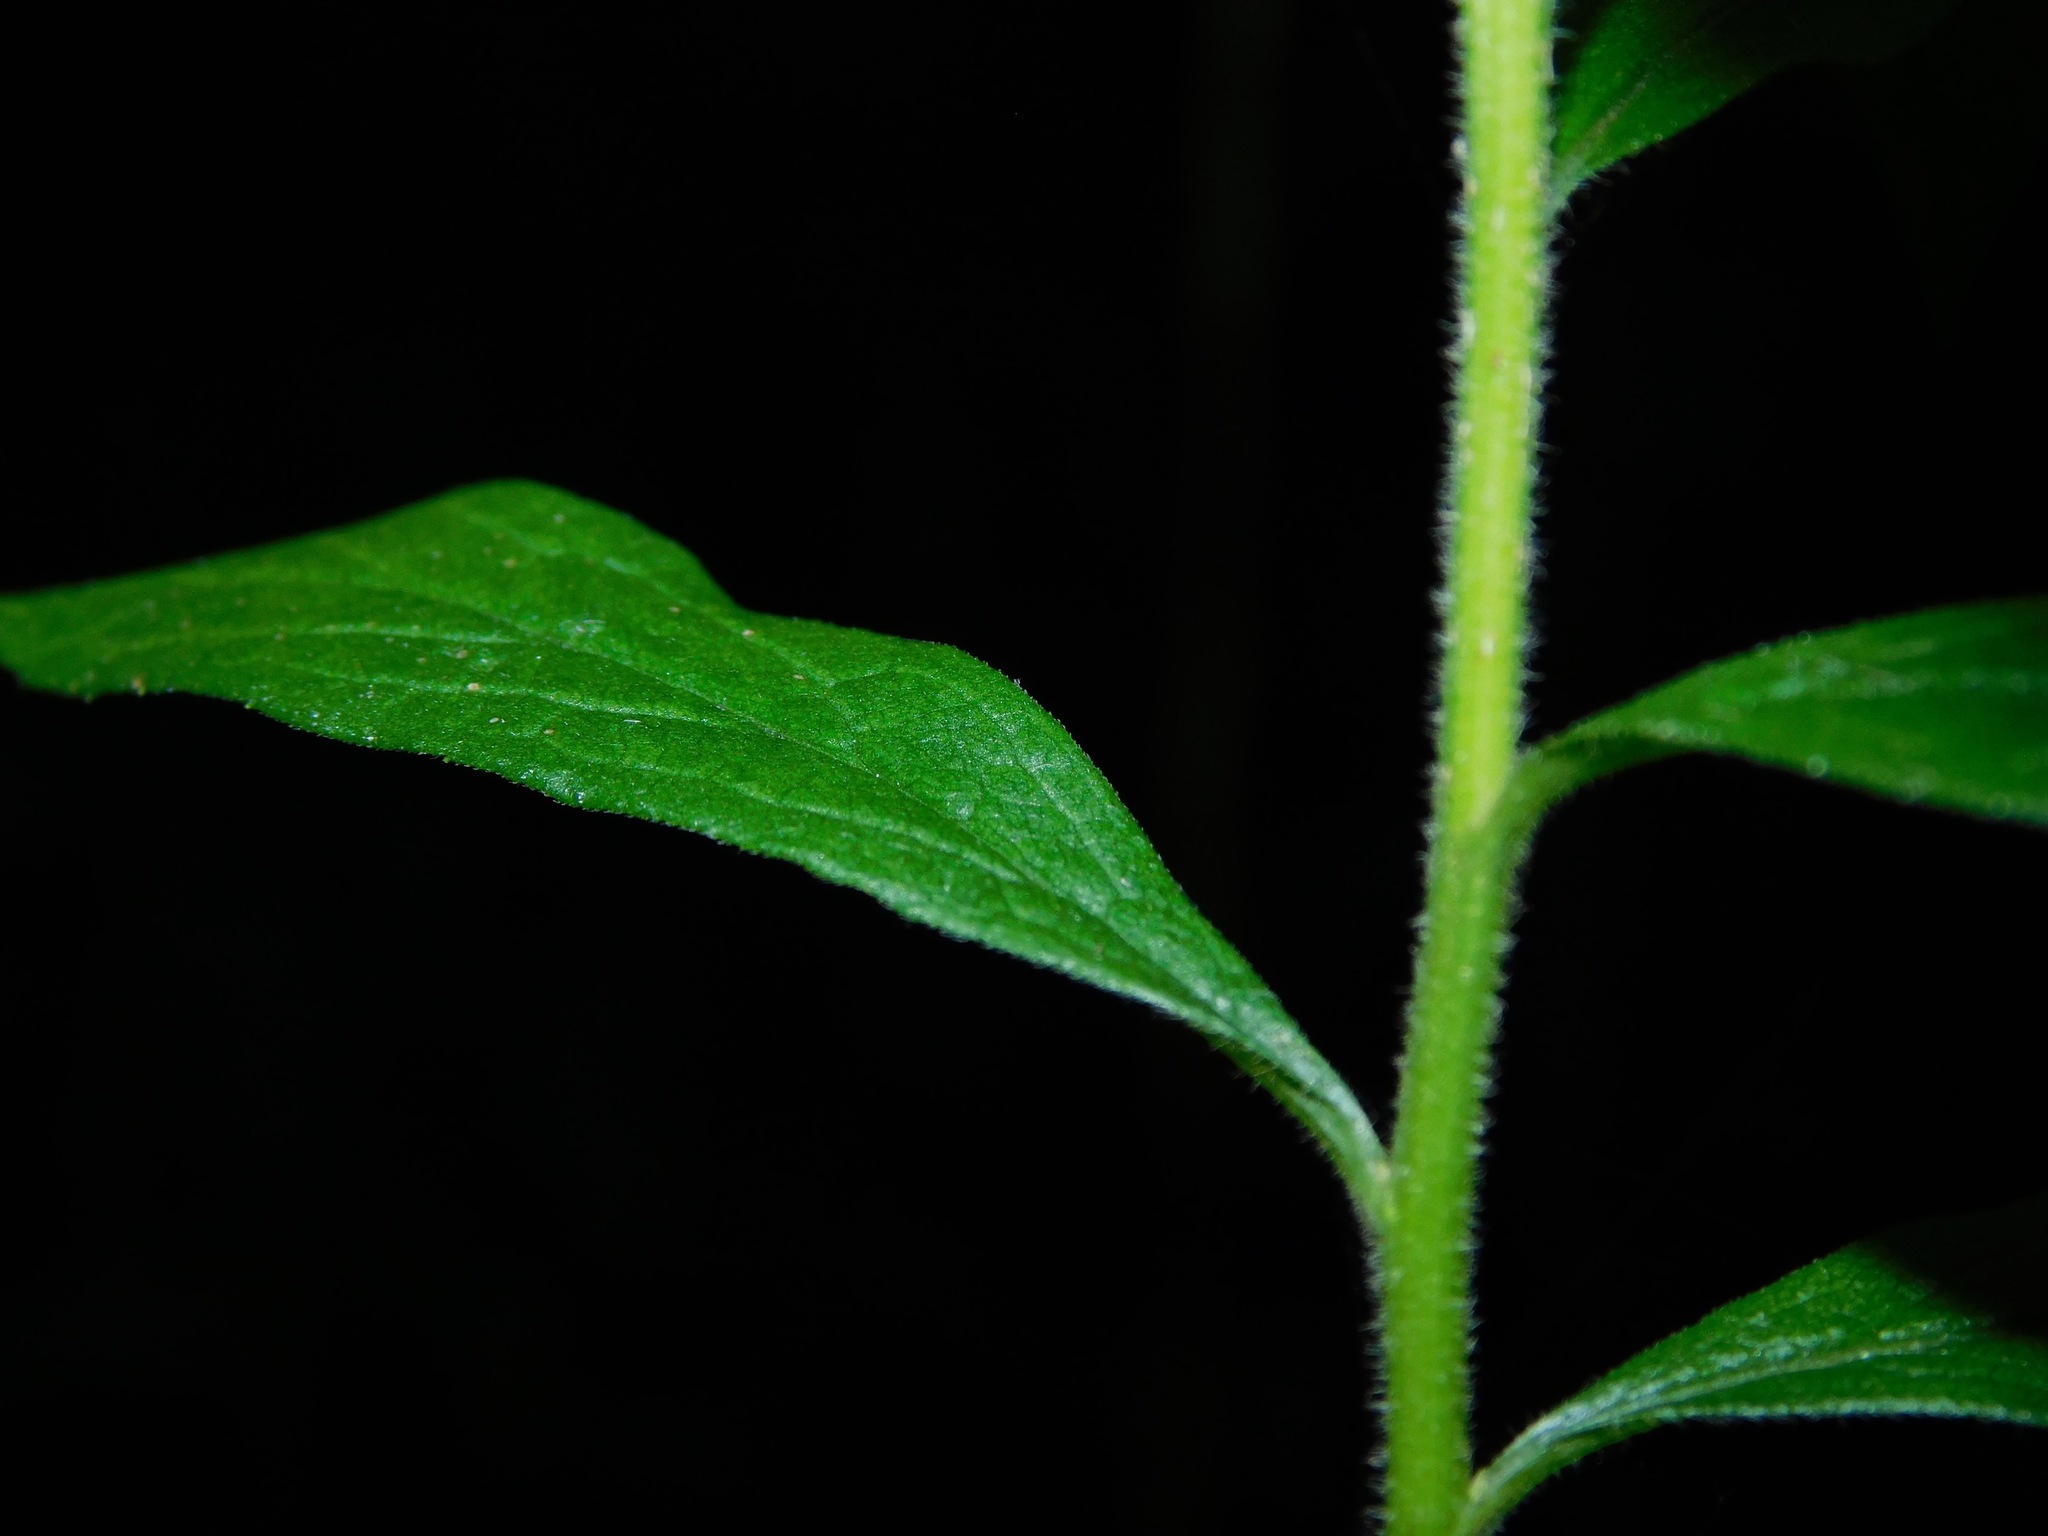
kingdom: Plantae
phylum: Tracheophyta
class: Magnoliopsida
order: Asterales
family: Asteraceae
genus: Solidago
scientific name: Solidago rugosa
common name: Rough-stemmed goldenrod
